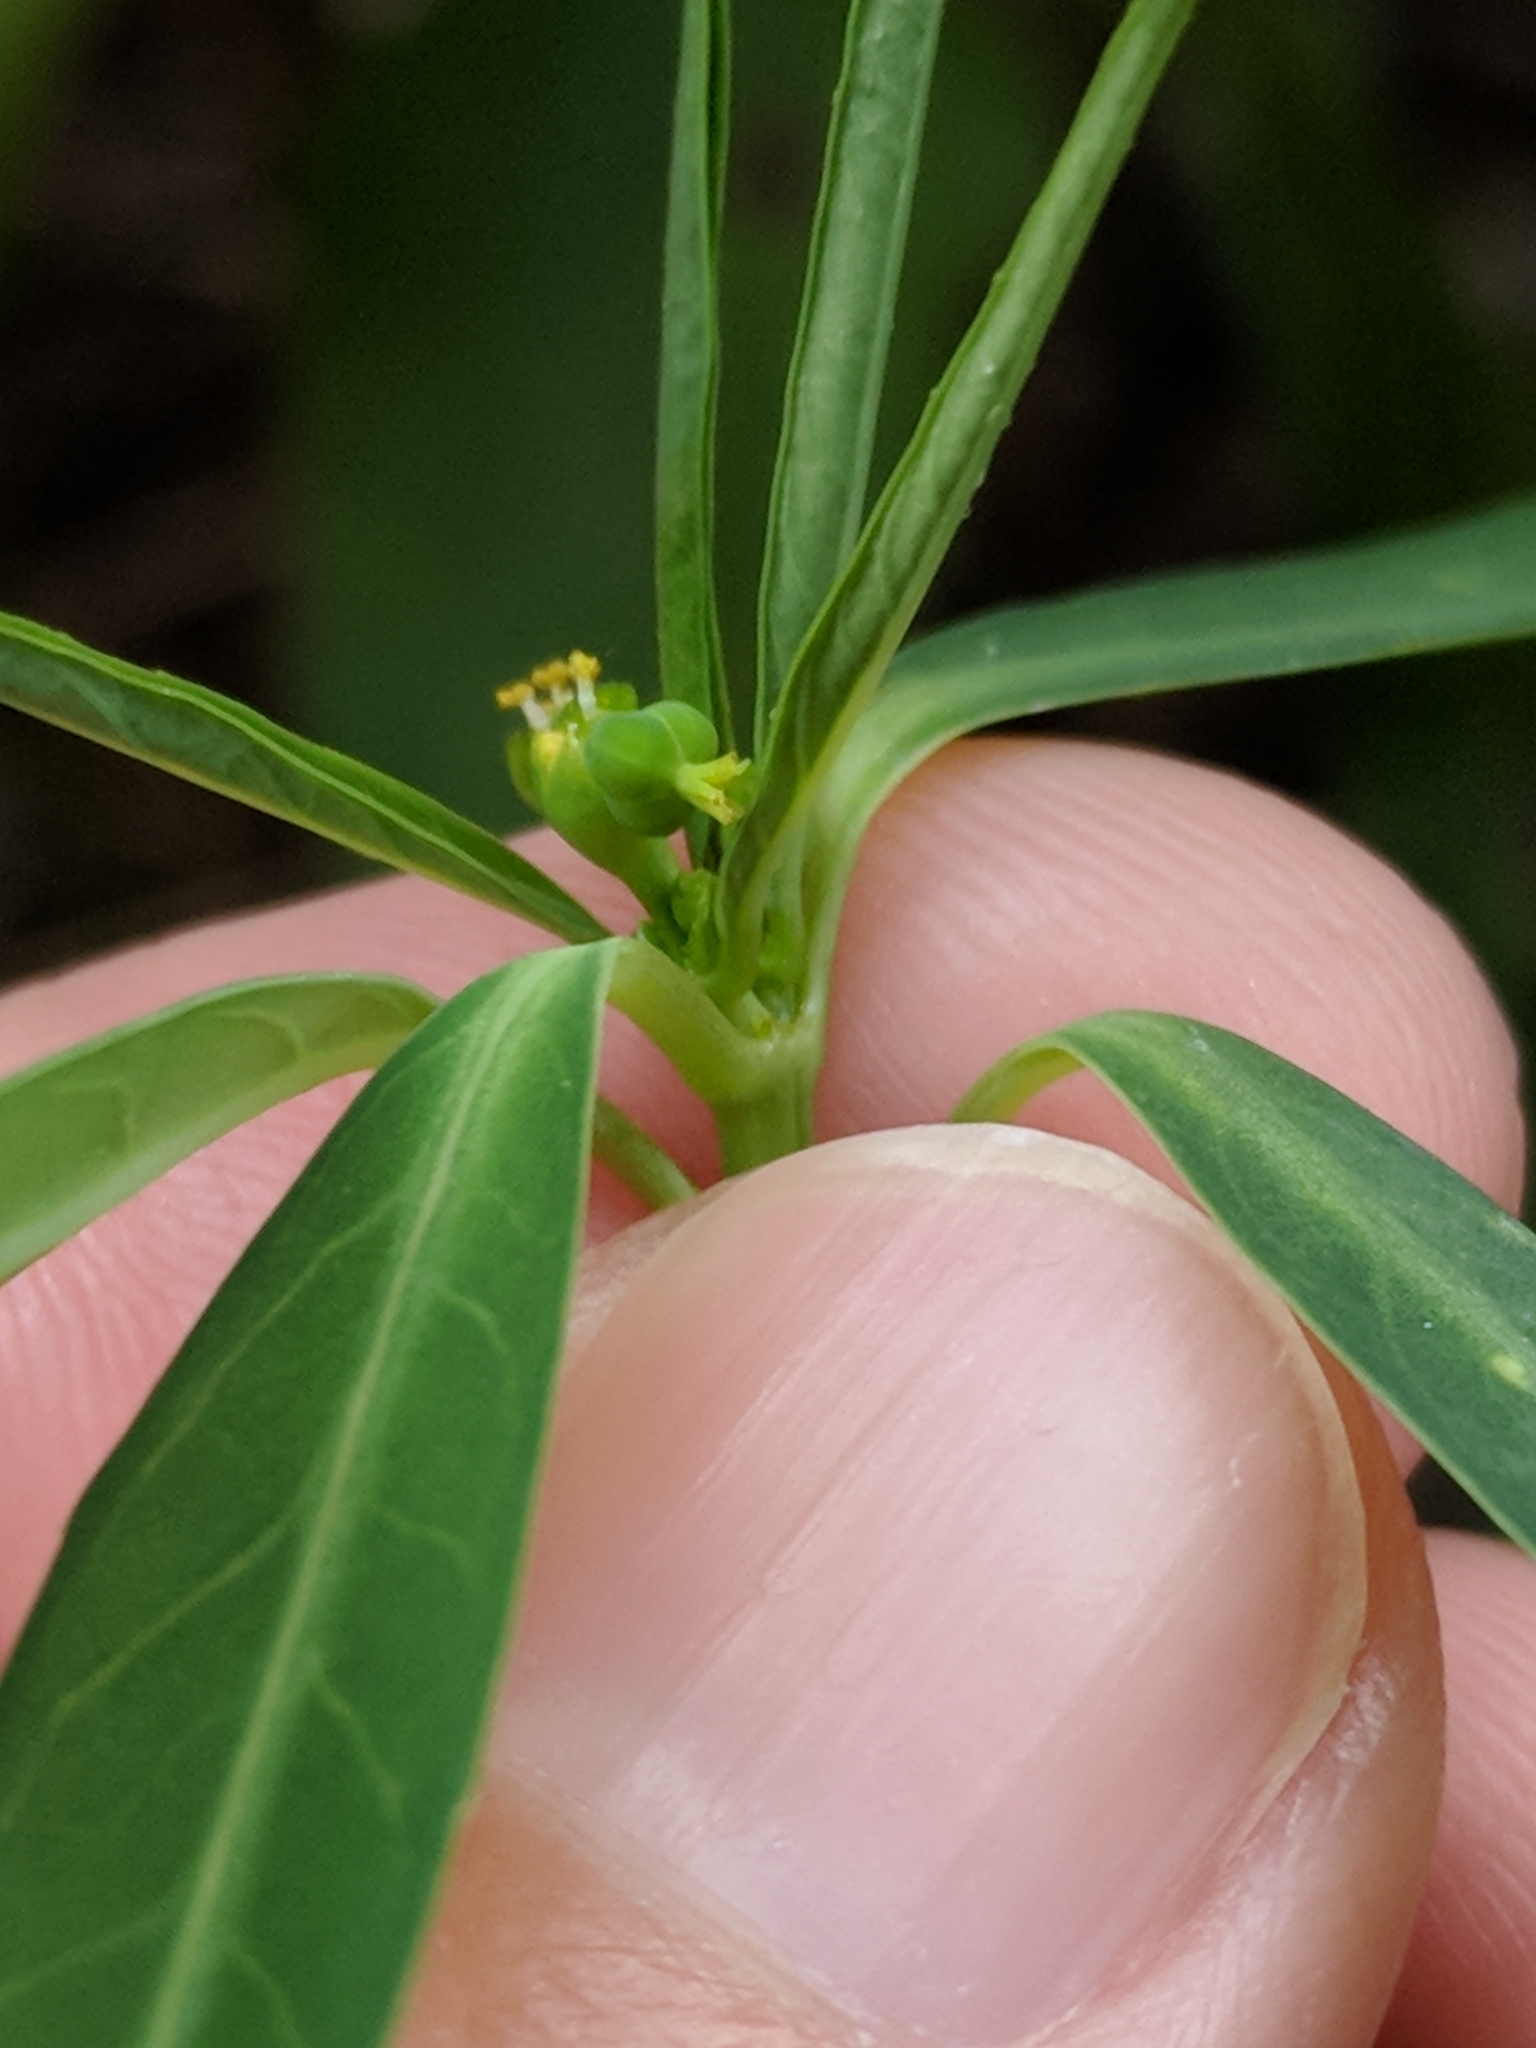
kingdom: Plantae
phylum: Tracheophyta
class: Magnoliopsida
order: Malpighiales
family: Euphorbiaceae
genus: Euphorbia
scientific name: Euphorbia heterophylla
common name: Mexican fireplant
